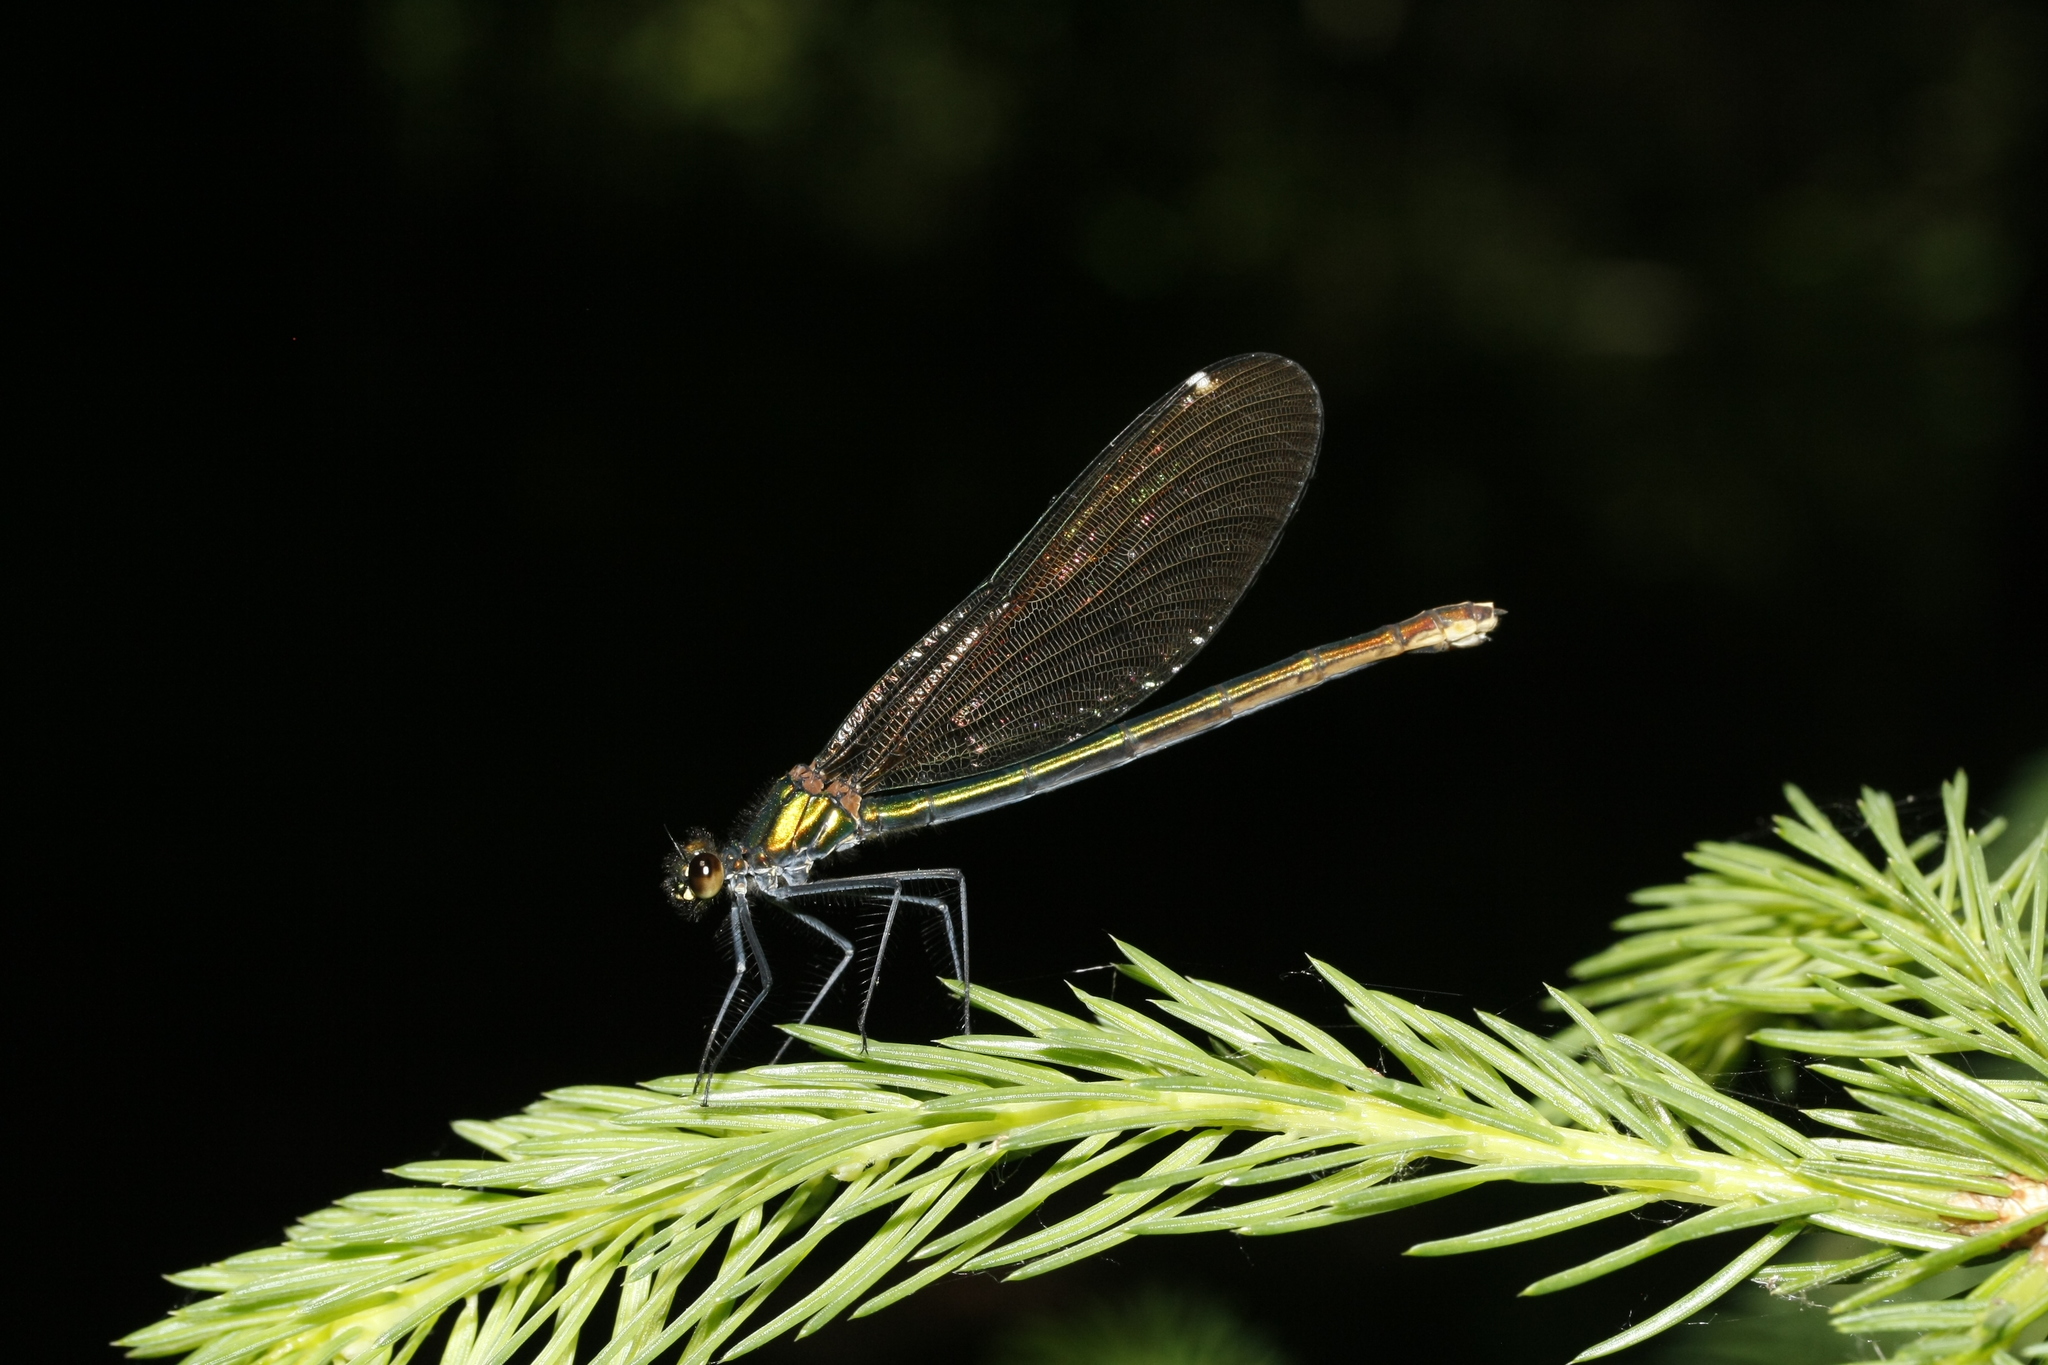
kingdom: Animalia
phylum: Arthropoda
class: Insecta
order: Odonata
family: Calopterygidae
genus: Calopteryx
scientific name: Calopteryx virgo
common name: Beautiful demoiselle
